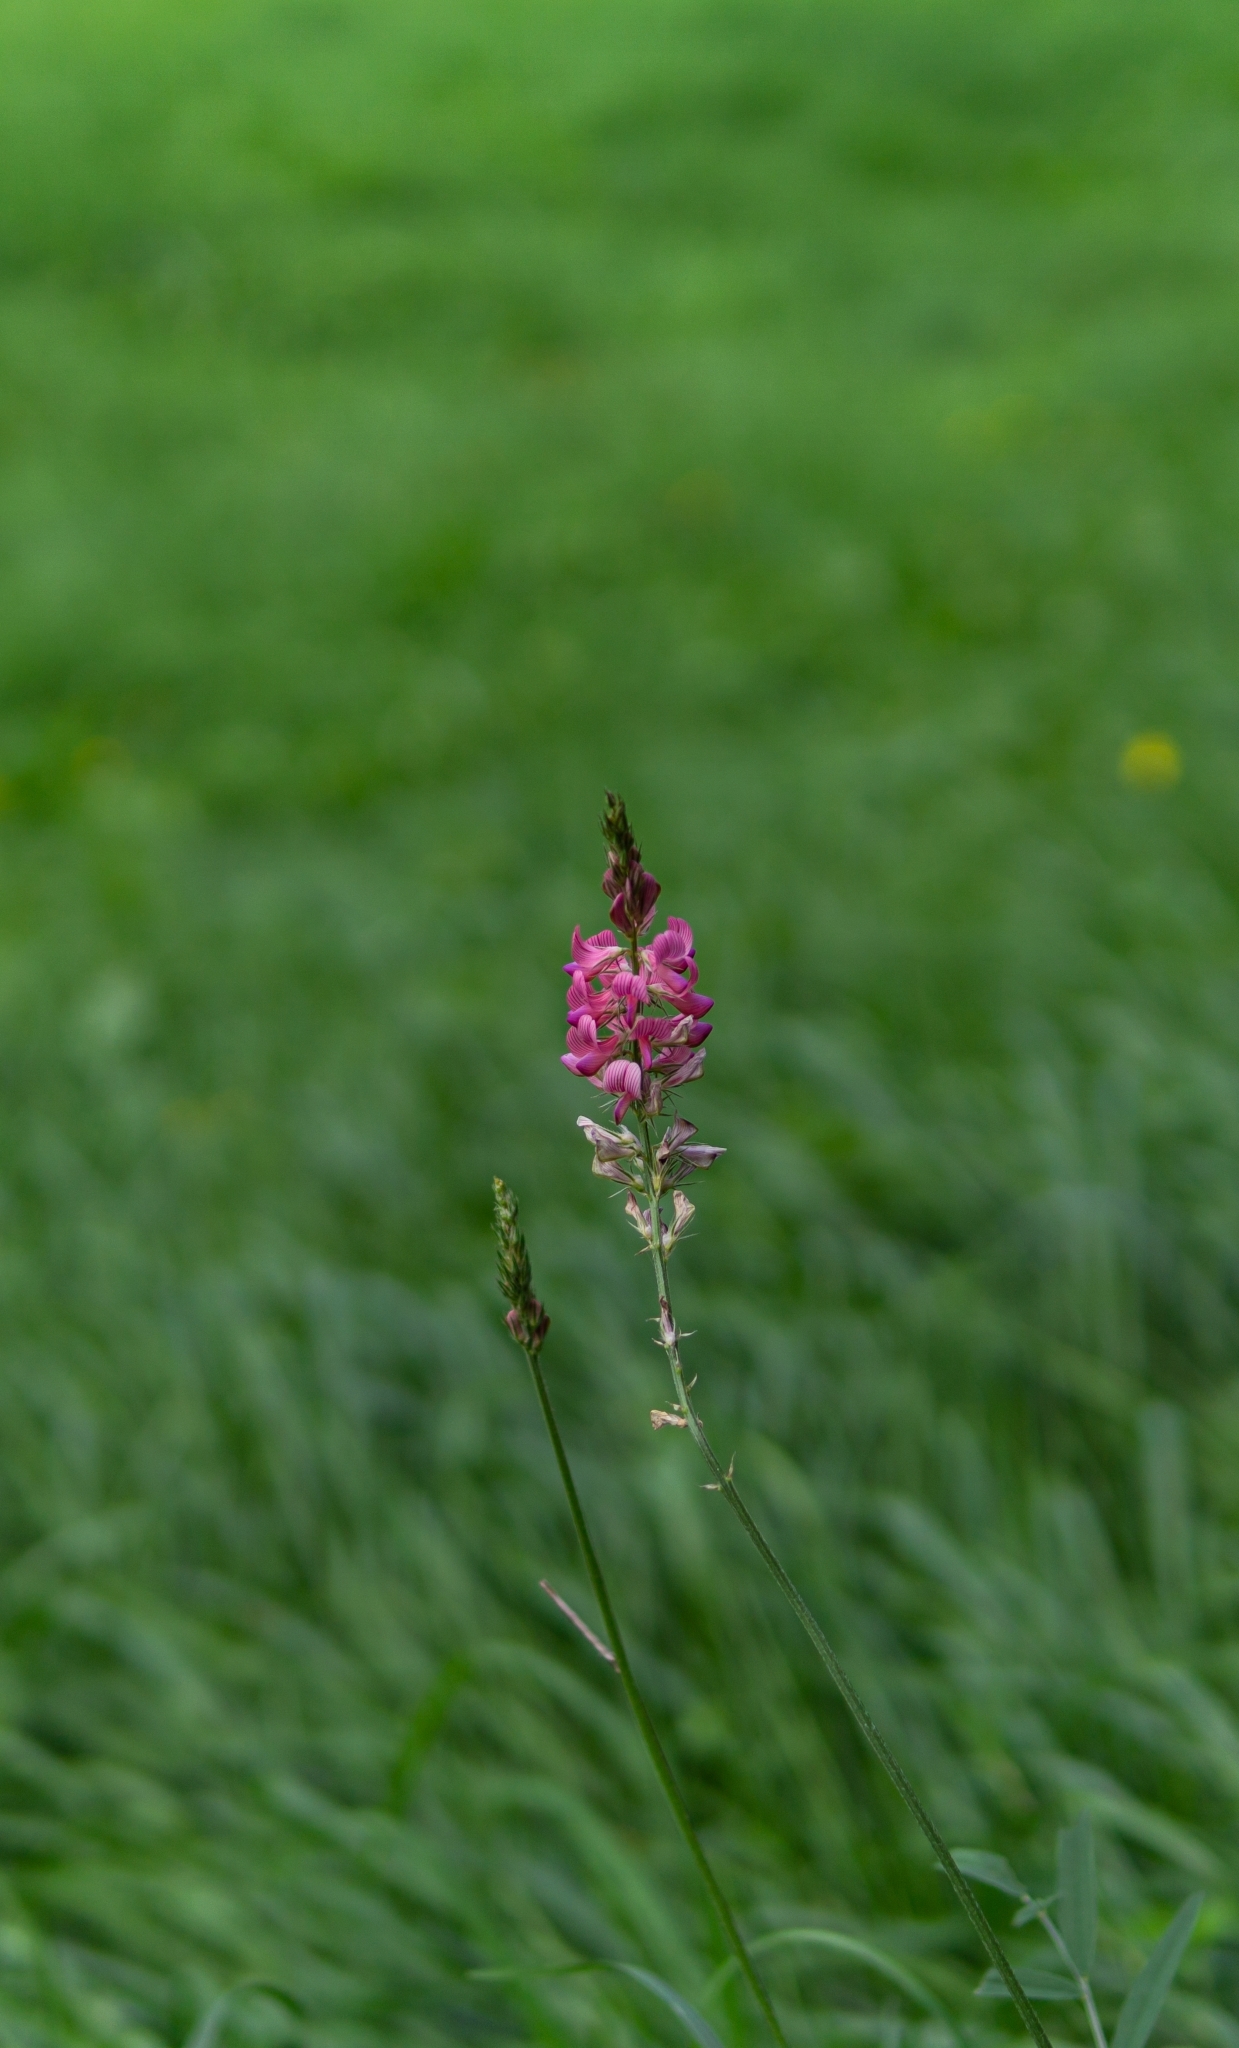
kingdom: Plantae
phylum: Tracheophyta
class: Magnoliopsida
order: Fabales
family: Fabaceae
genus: Onobrychis
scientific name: Onobrychis viciifolia
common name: Sainfoin
